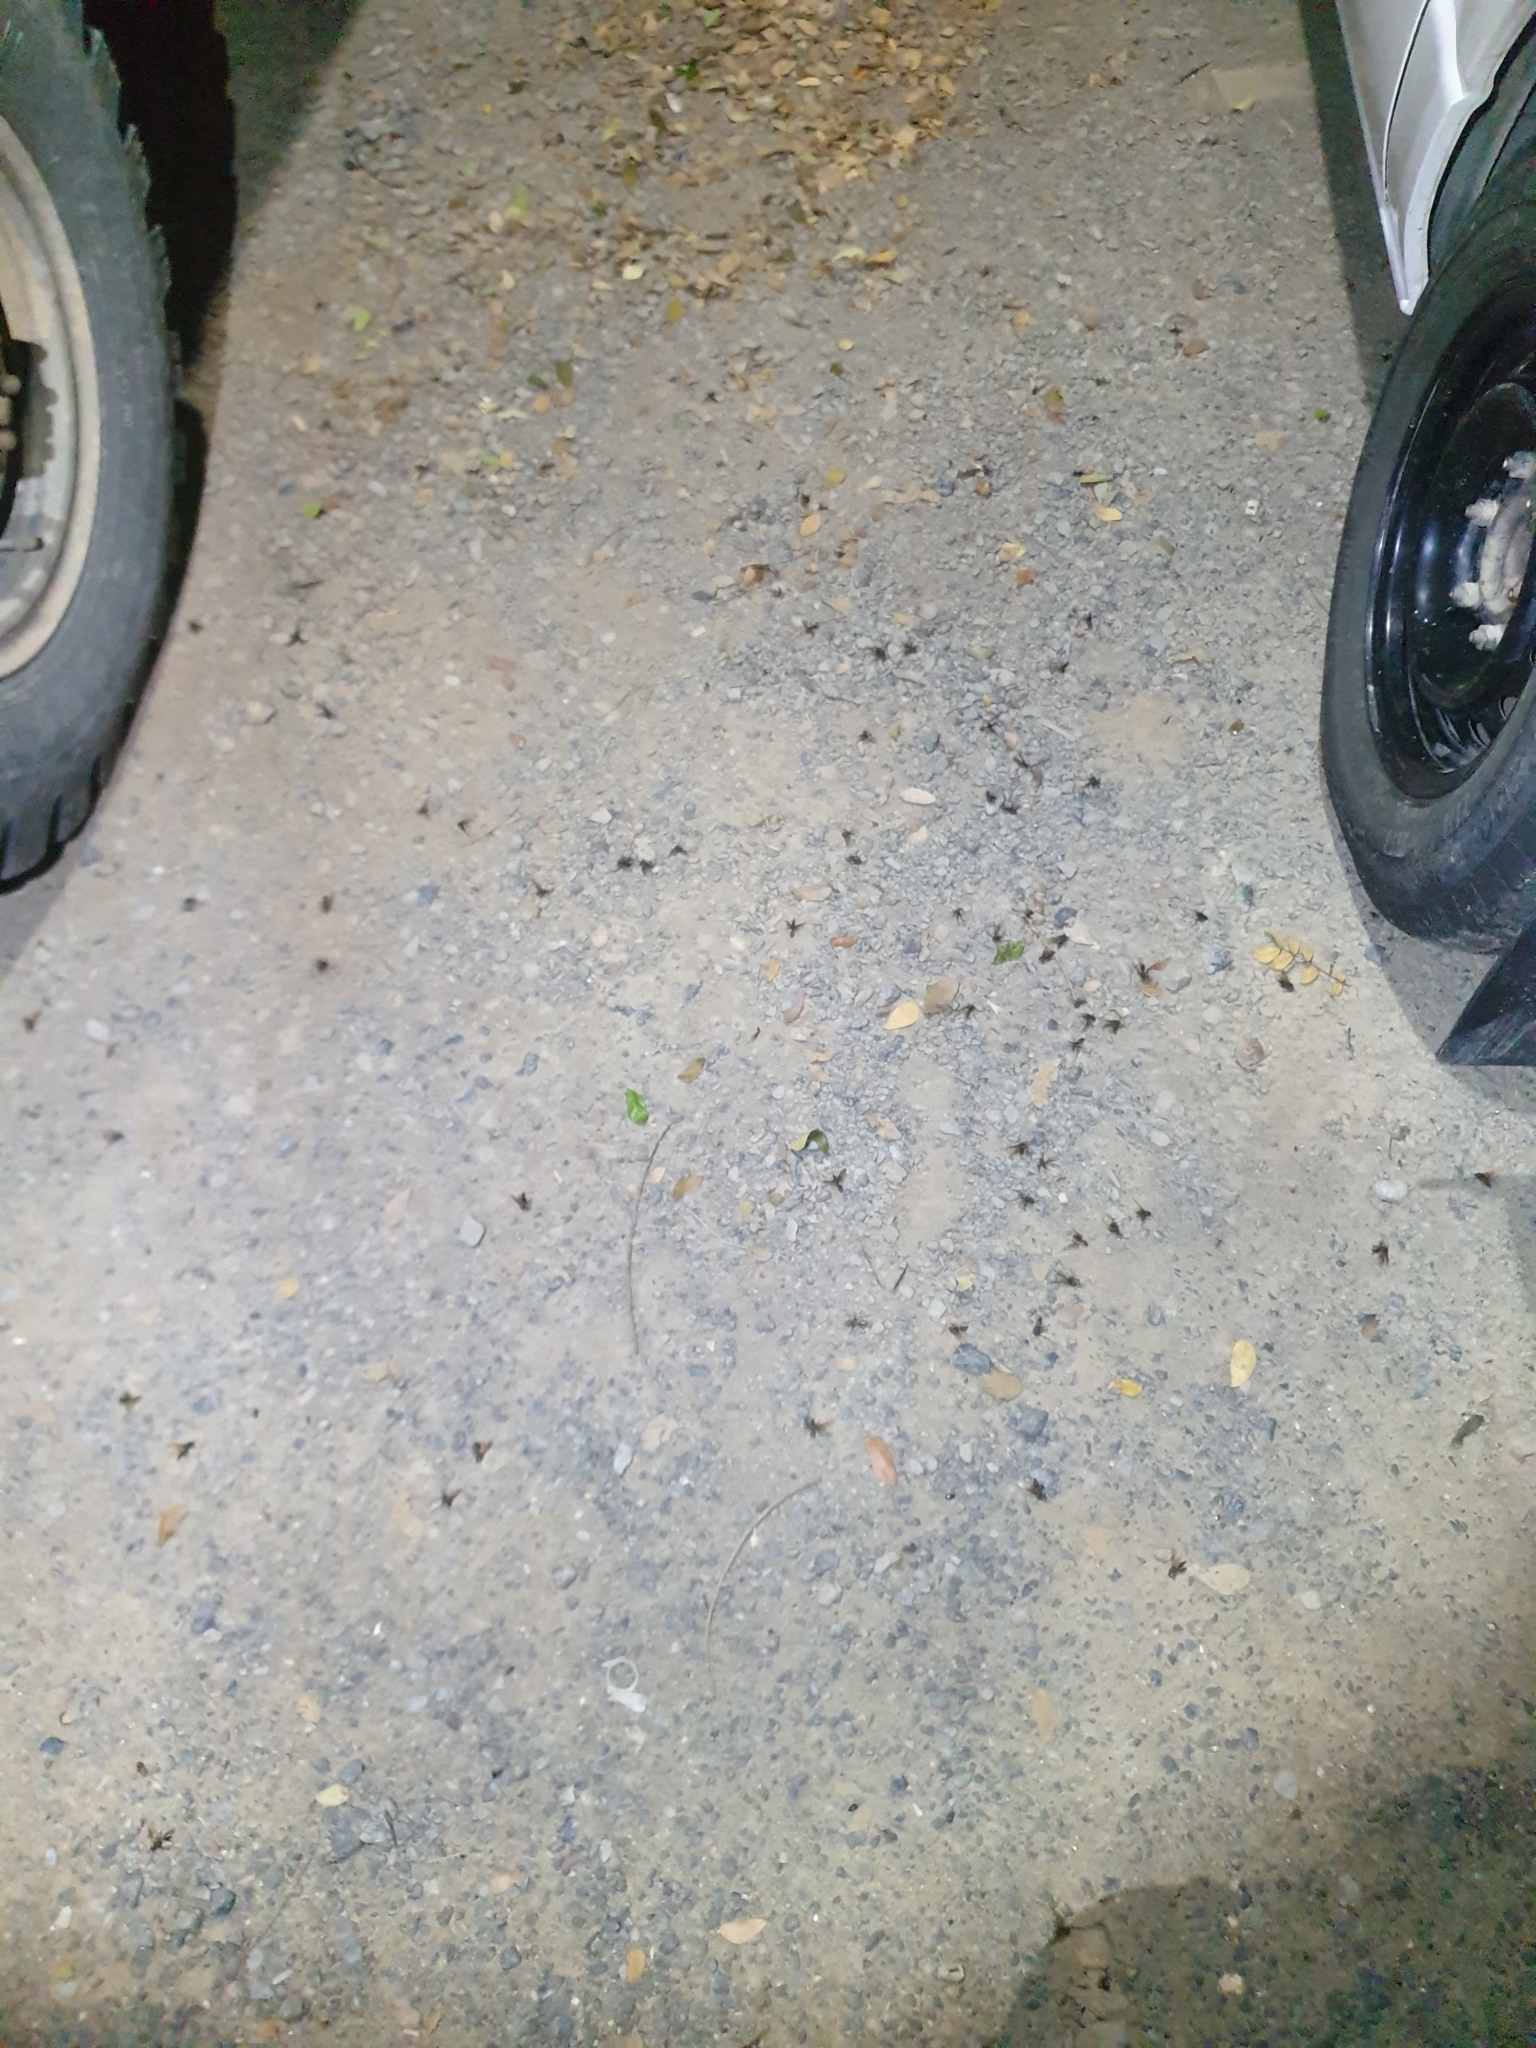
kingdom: Animalia
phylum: Arthropoda
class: Insecta
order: Hymenoptera
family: Formicidae
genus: Dinomyrmex
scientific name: Dinomyrmex
